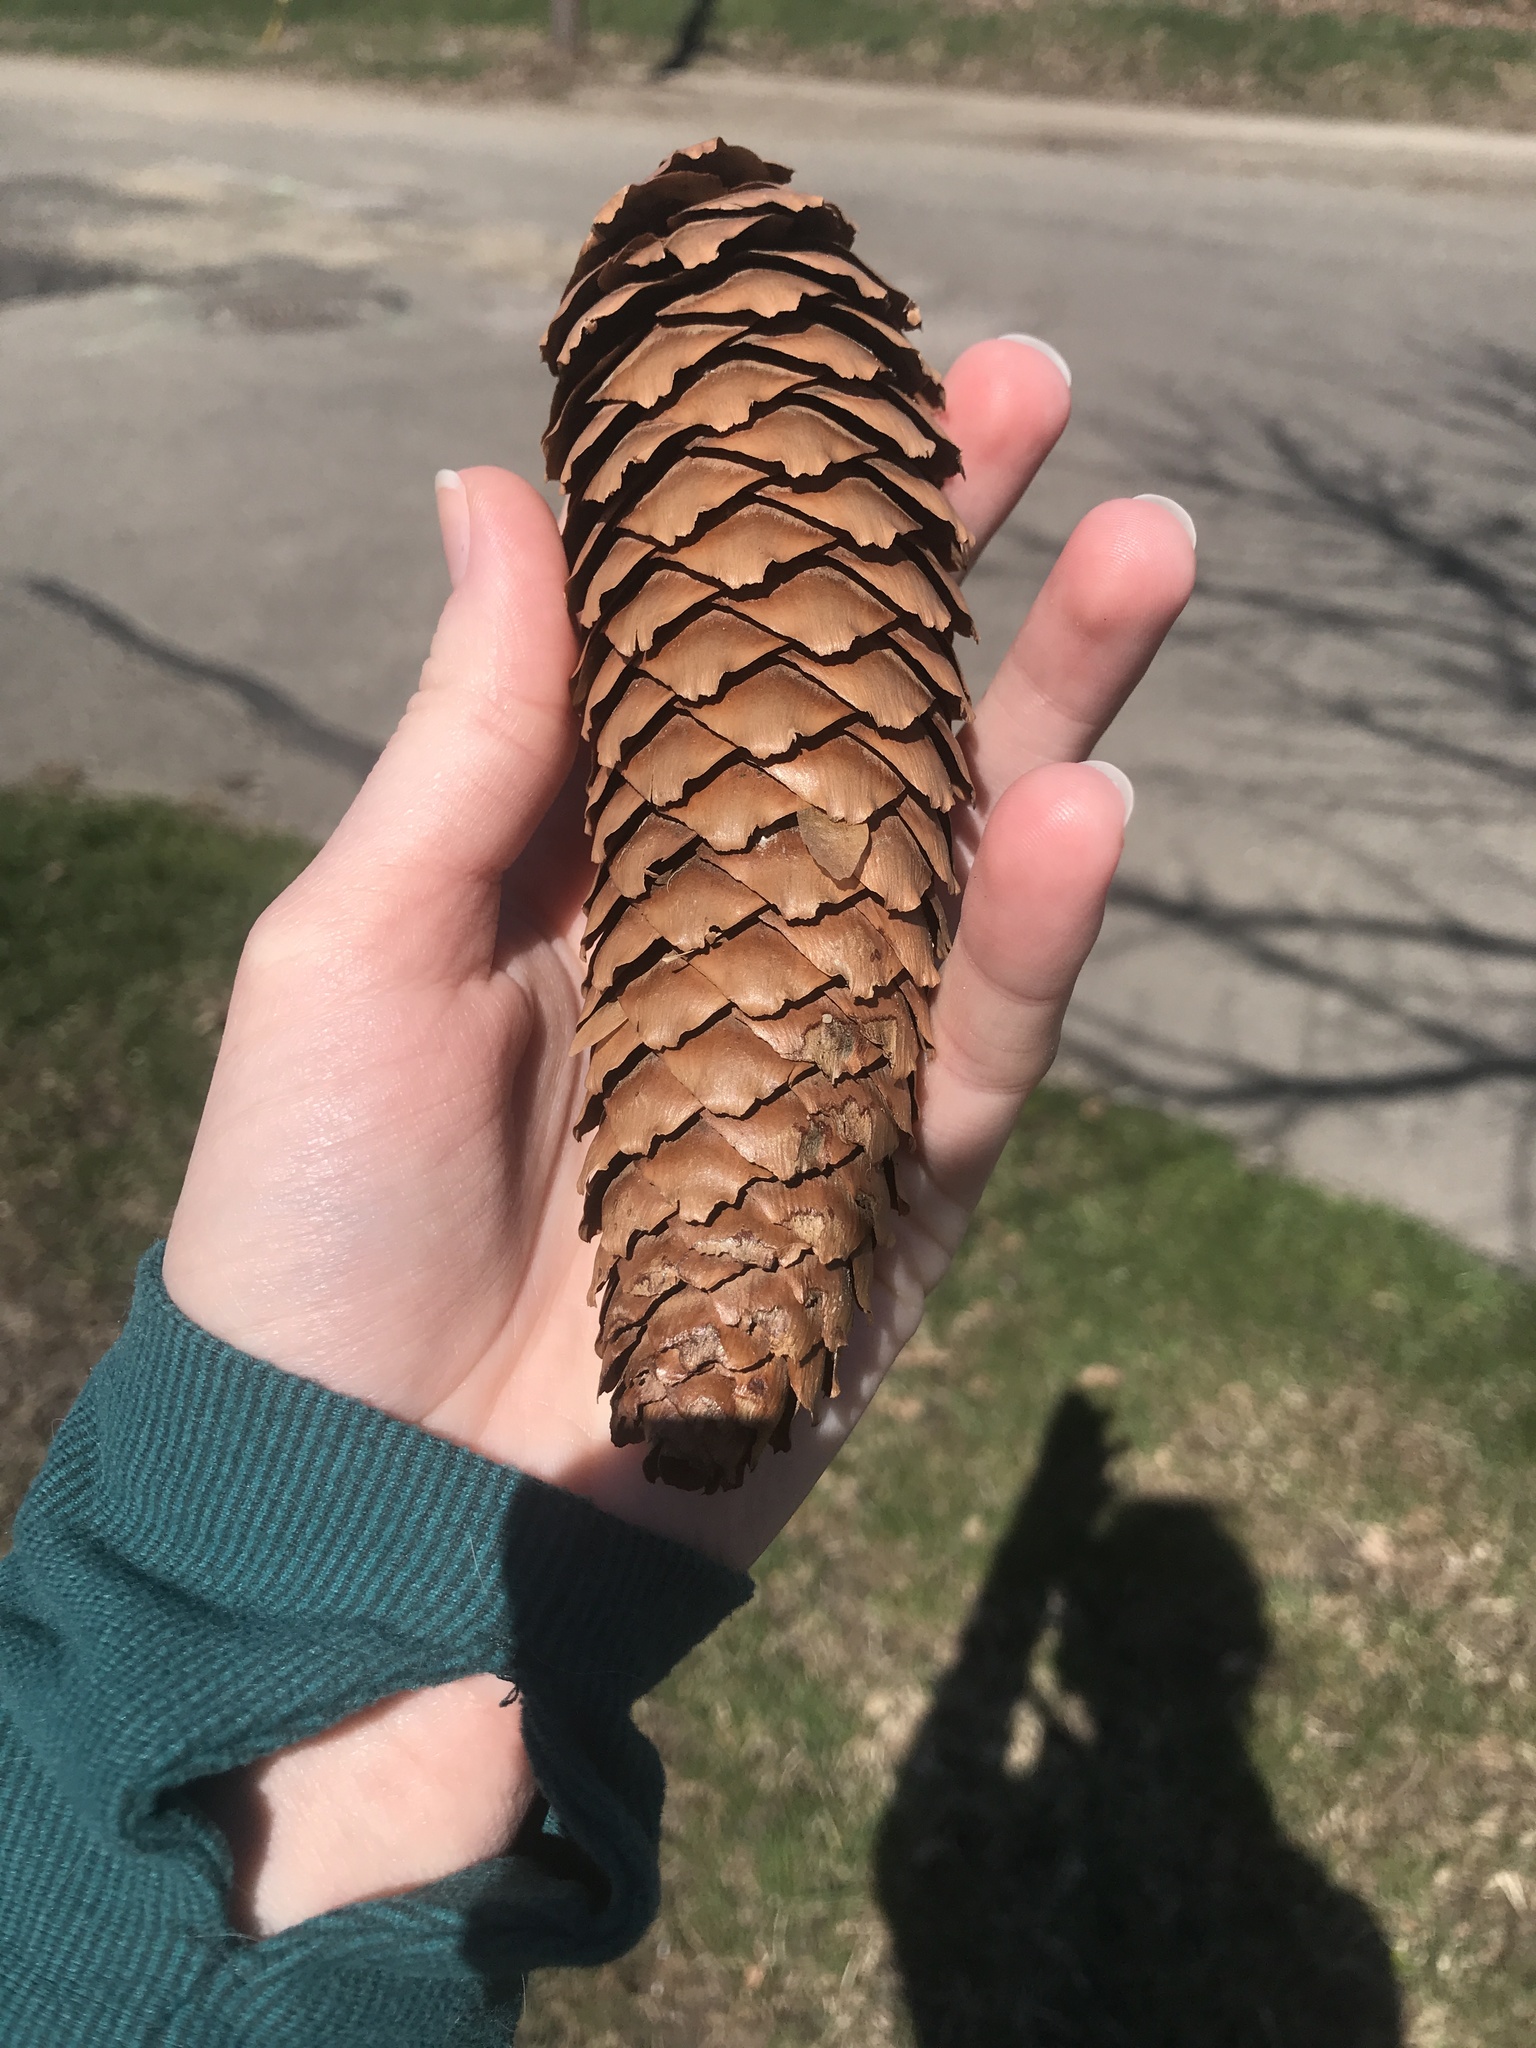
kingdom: Plantae
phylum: Tracheophyta
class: Pinopsida
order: Pinales
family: Pinaceae
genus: Picea
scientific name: Picea abies
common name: Norway spruce
